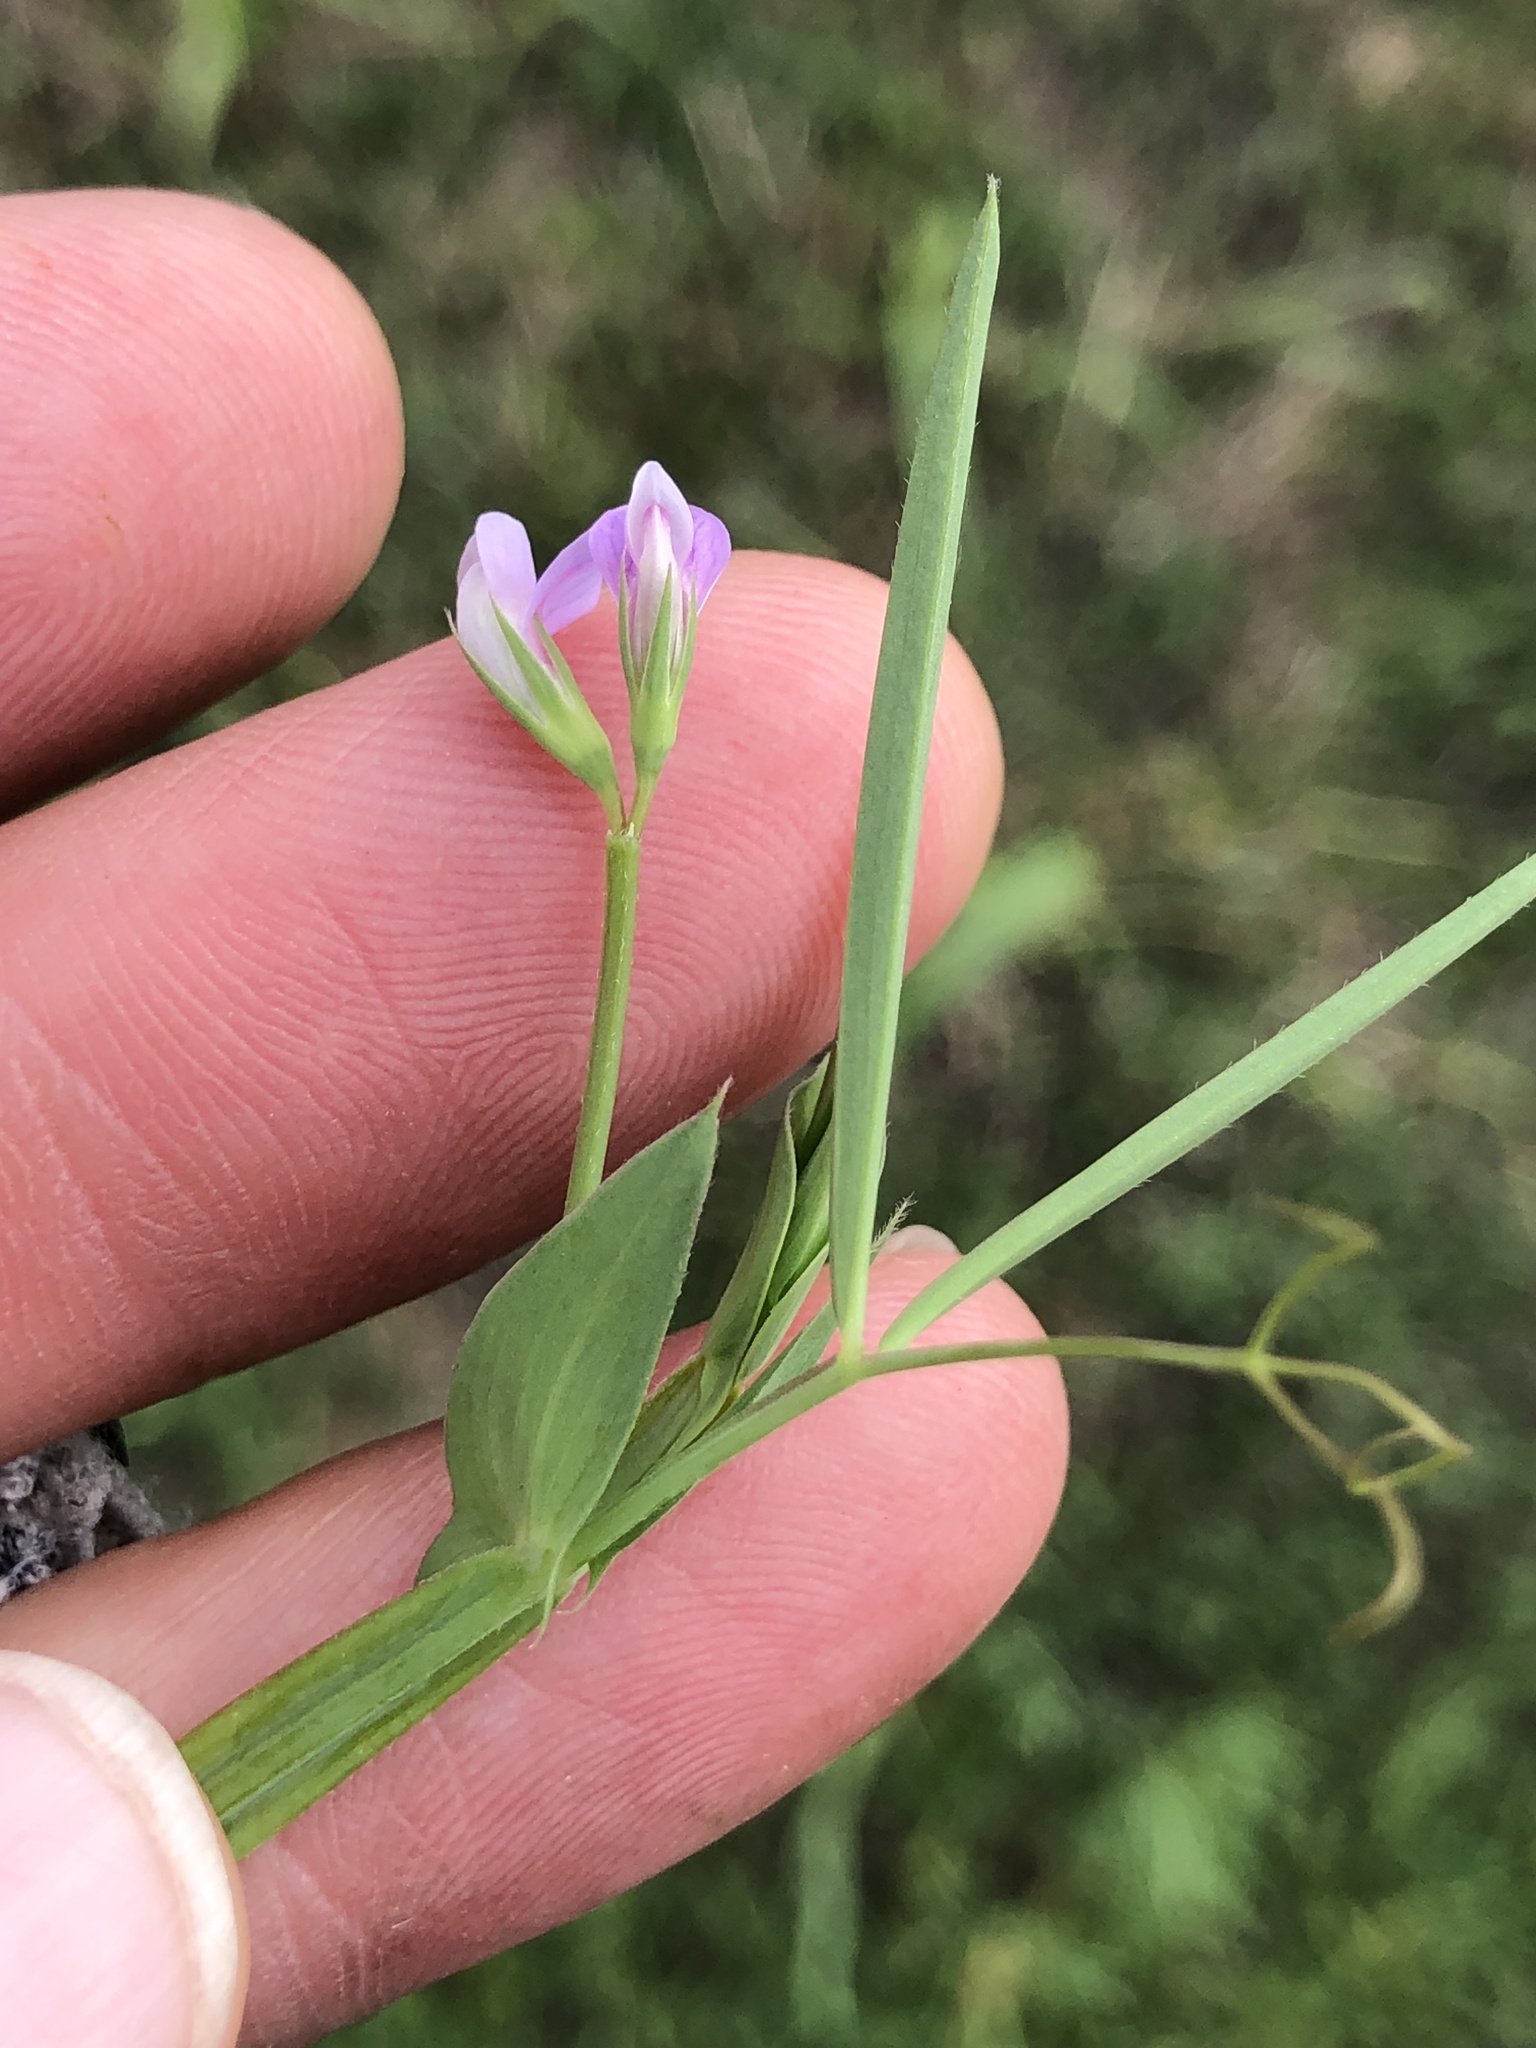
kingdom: Plantae
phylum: Tracheophyta
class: Magnoliopsida
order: Fabales
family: Fabaceae
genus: Lathyrus
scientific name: Lathyrus pusillus
